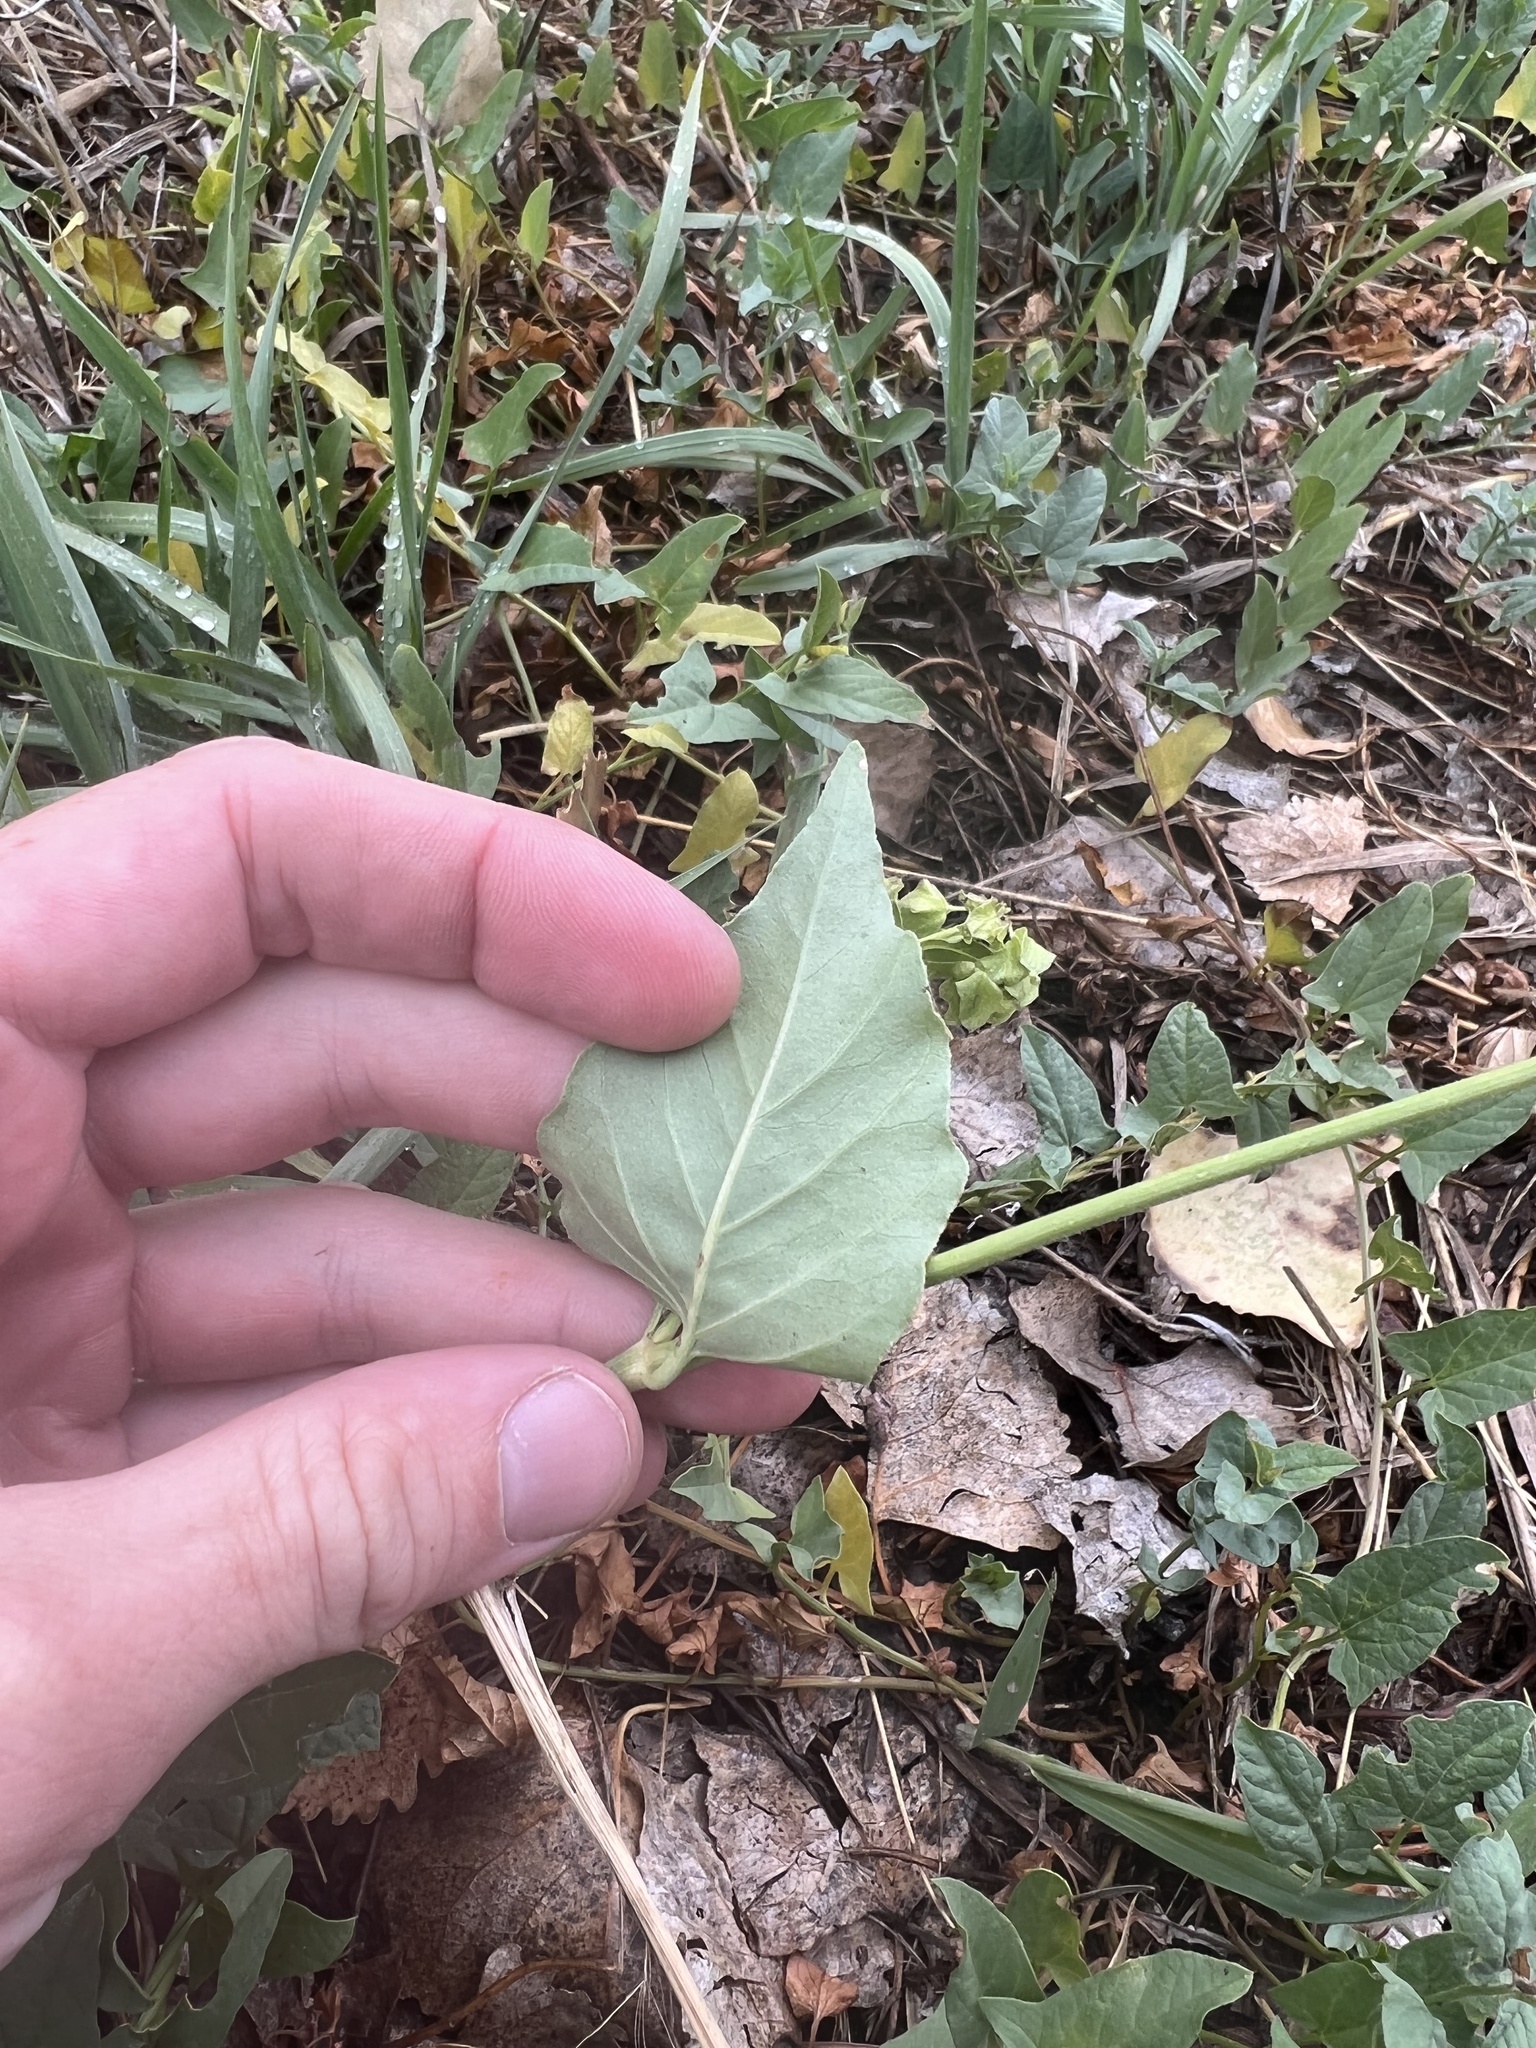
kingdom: Plantae
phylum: Tracheophyta
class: Magnoliopsida
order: Caryophyllales
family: Nyctaginaceae
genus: Mirabilis
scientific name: Mirabilis nyctaginea
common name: Umbrella wort
